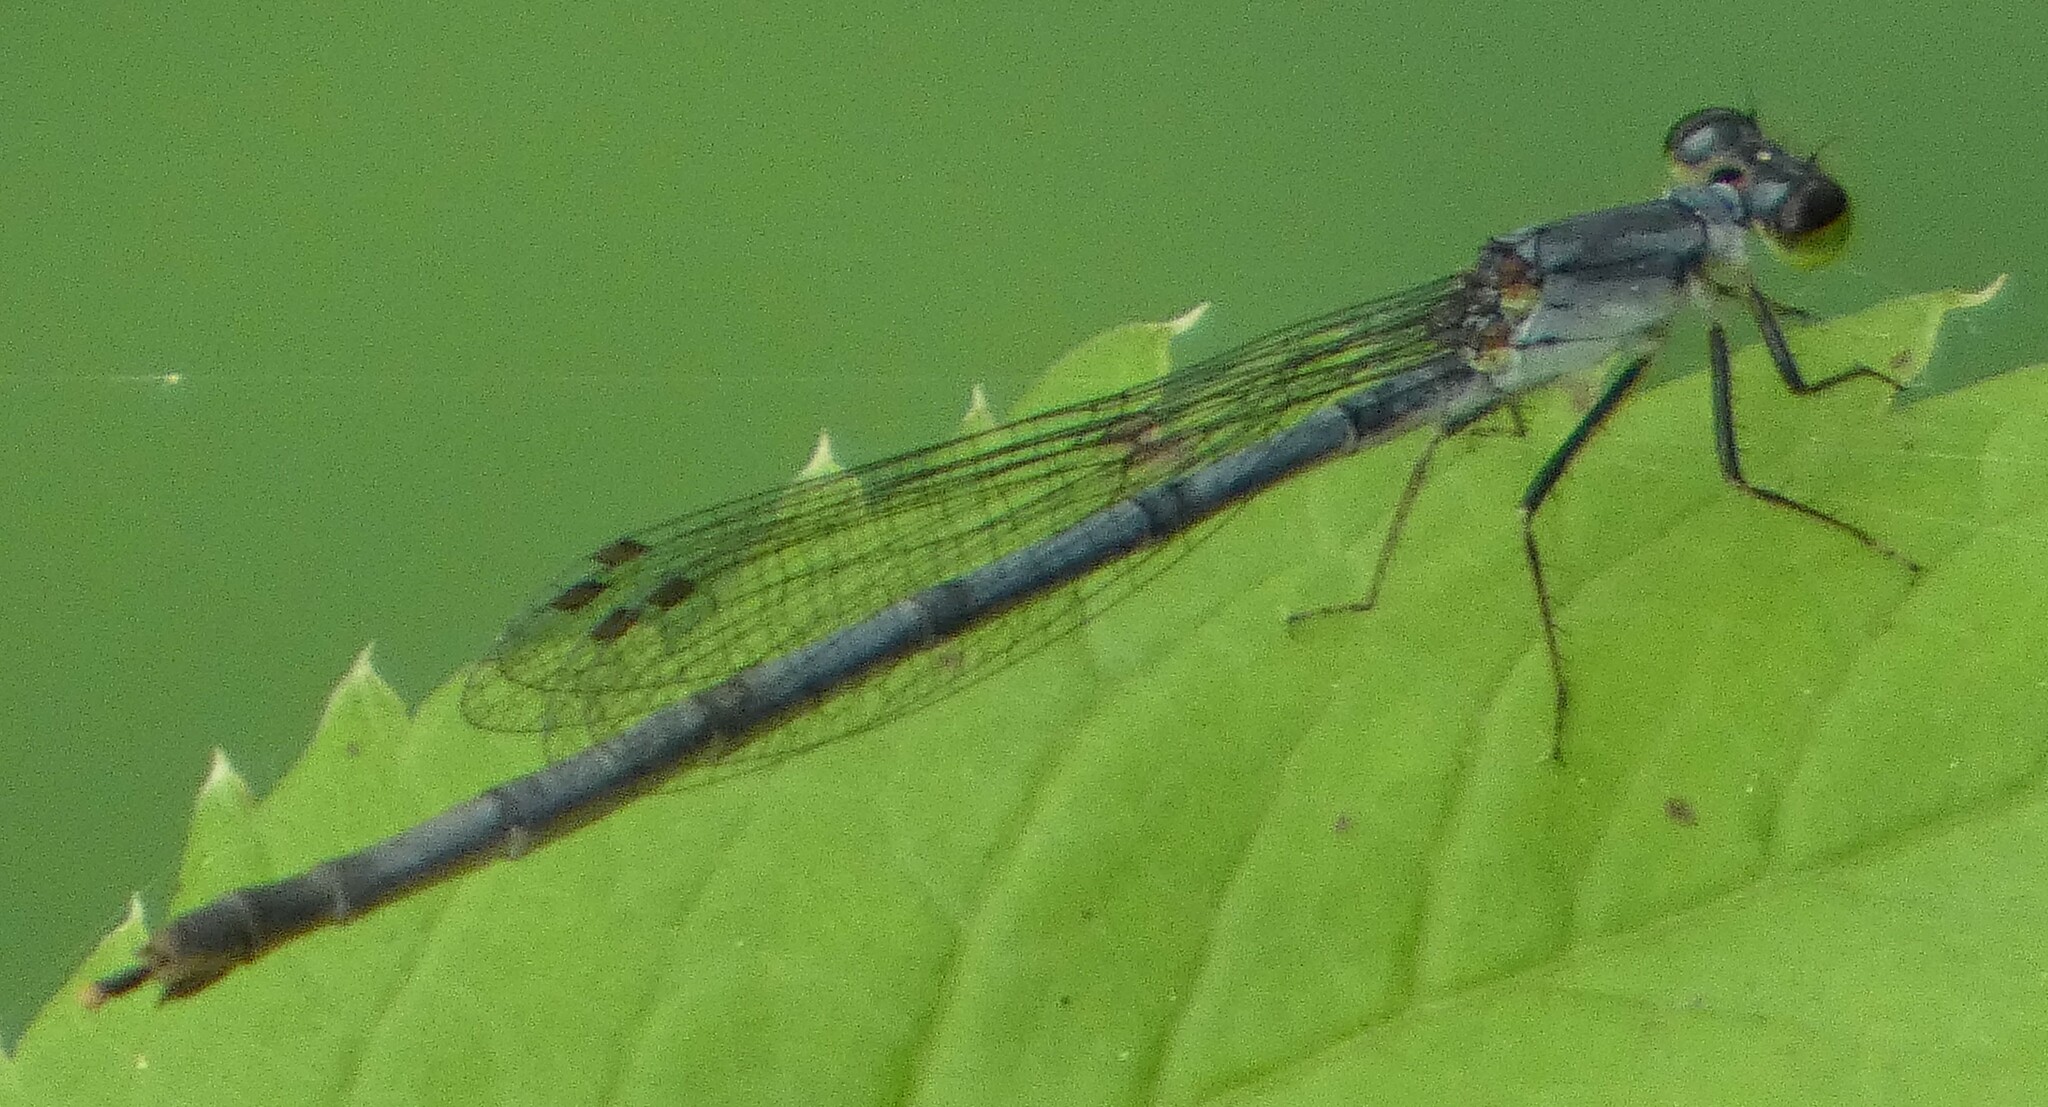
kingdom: Animalia
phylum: Arthropoda
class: Insecta
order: Odonata
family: Coenagrionidae
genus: Ischnura
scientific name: Ischnura posita
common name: Fragile forktail
